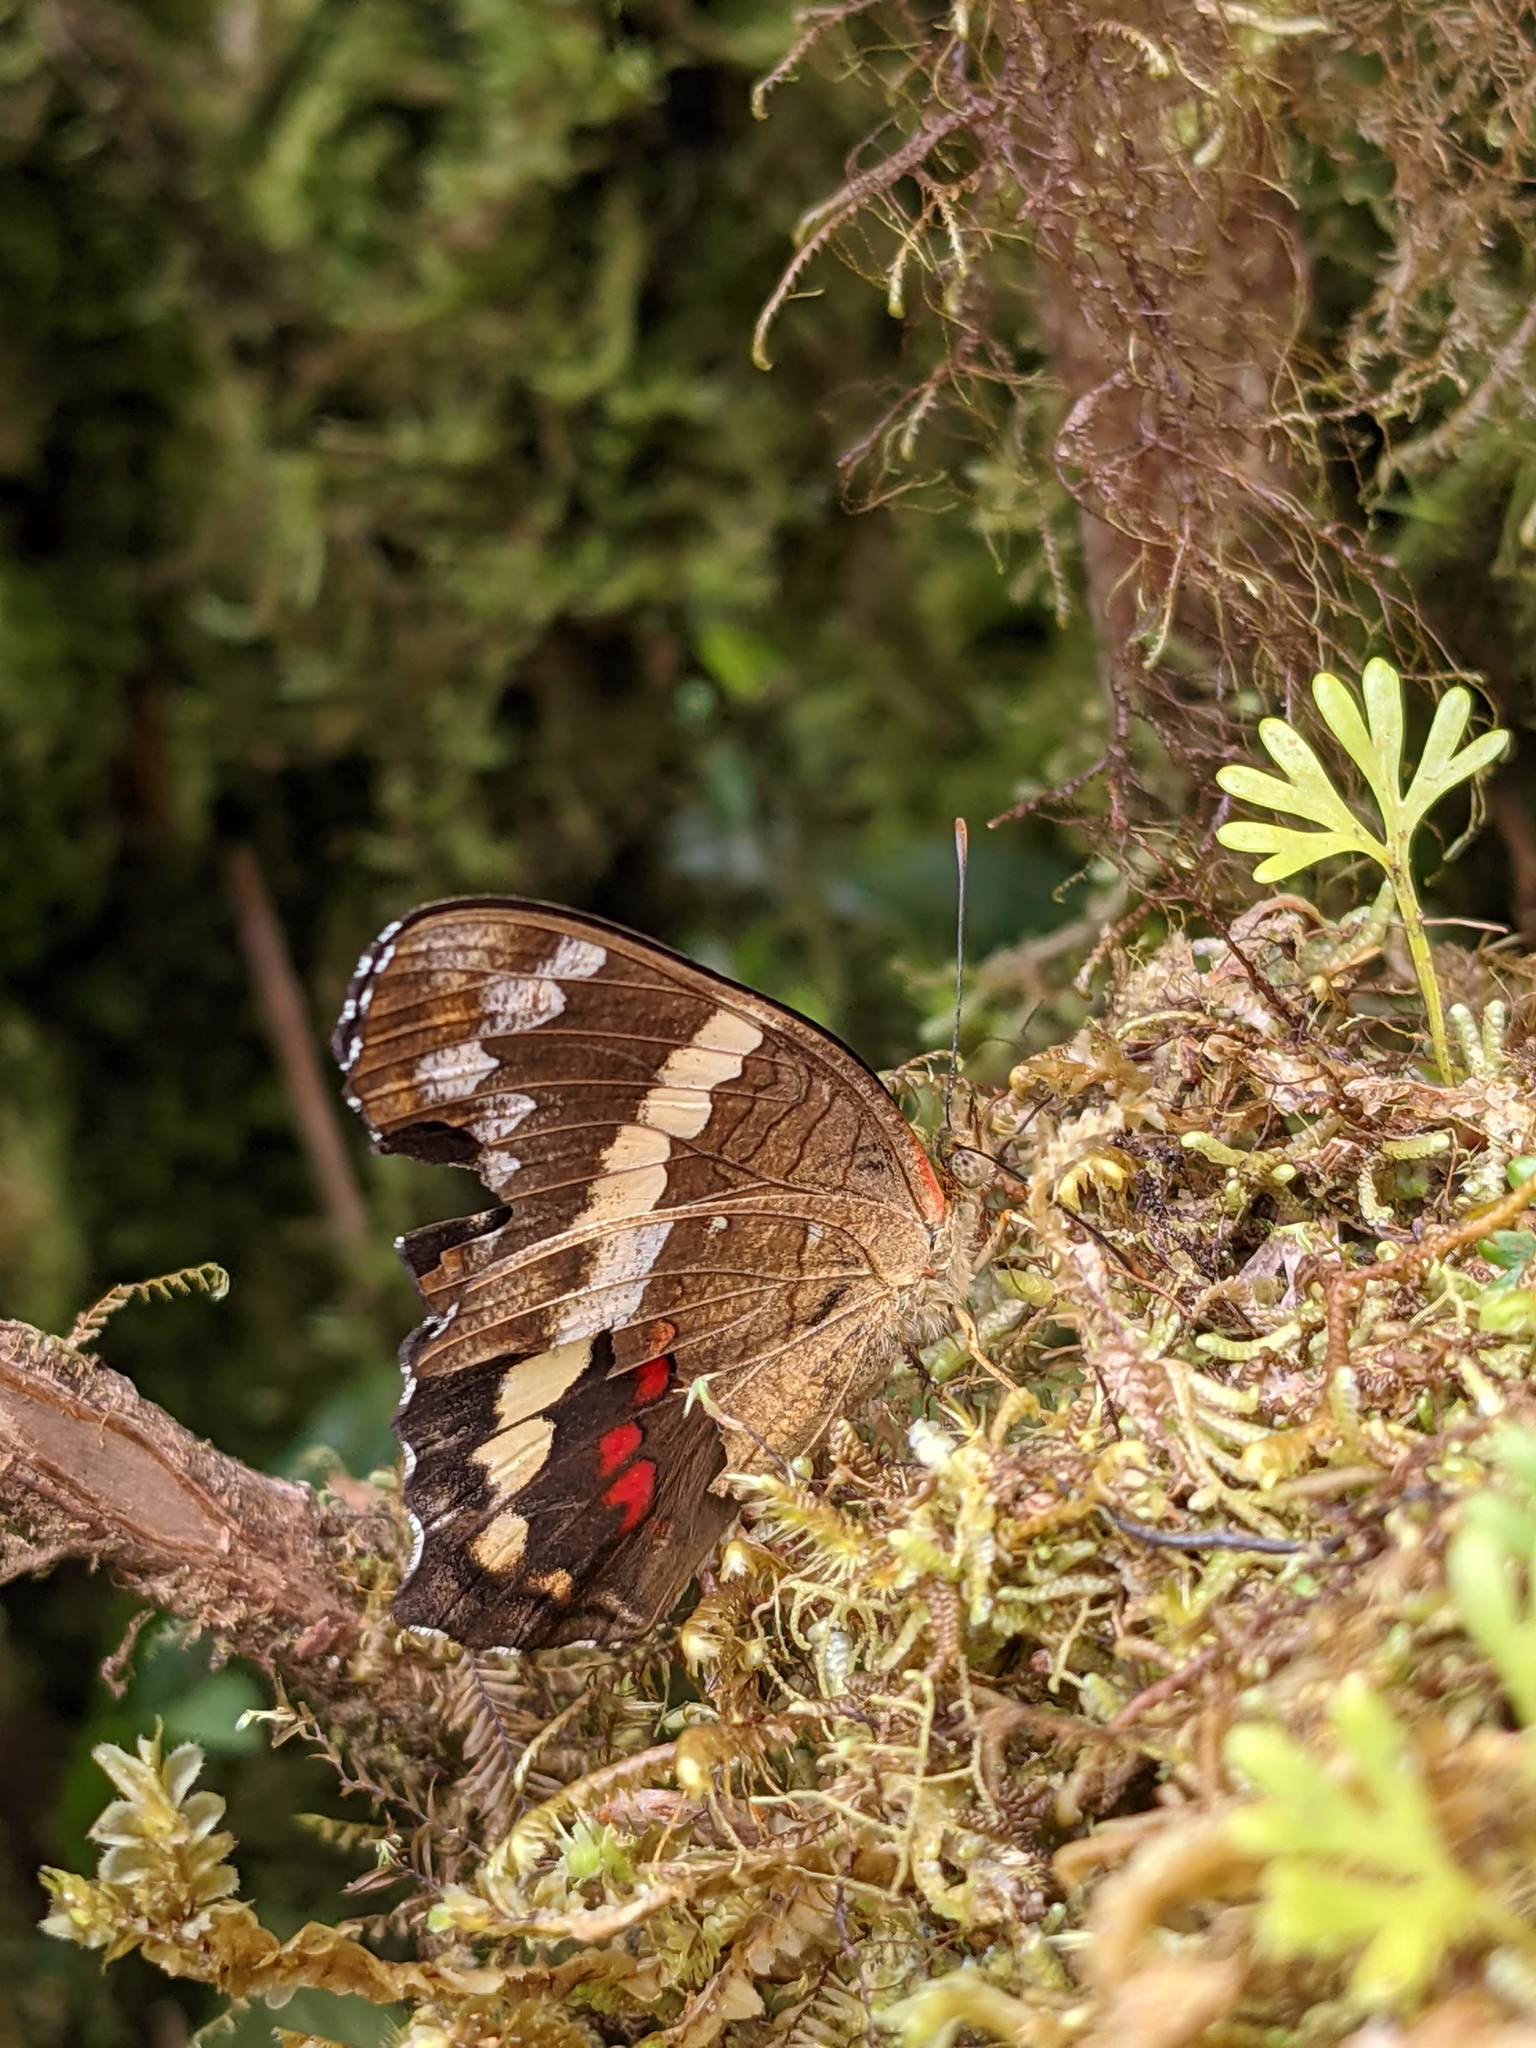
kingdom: Animalia
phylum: Arthropoda
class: Insecta
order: Lepidoptera
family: Nymphalidae
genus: Anartia
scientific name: Anartia fatima
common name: Banded peacock
